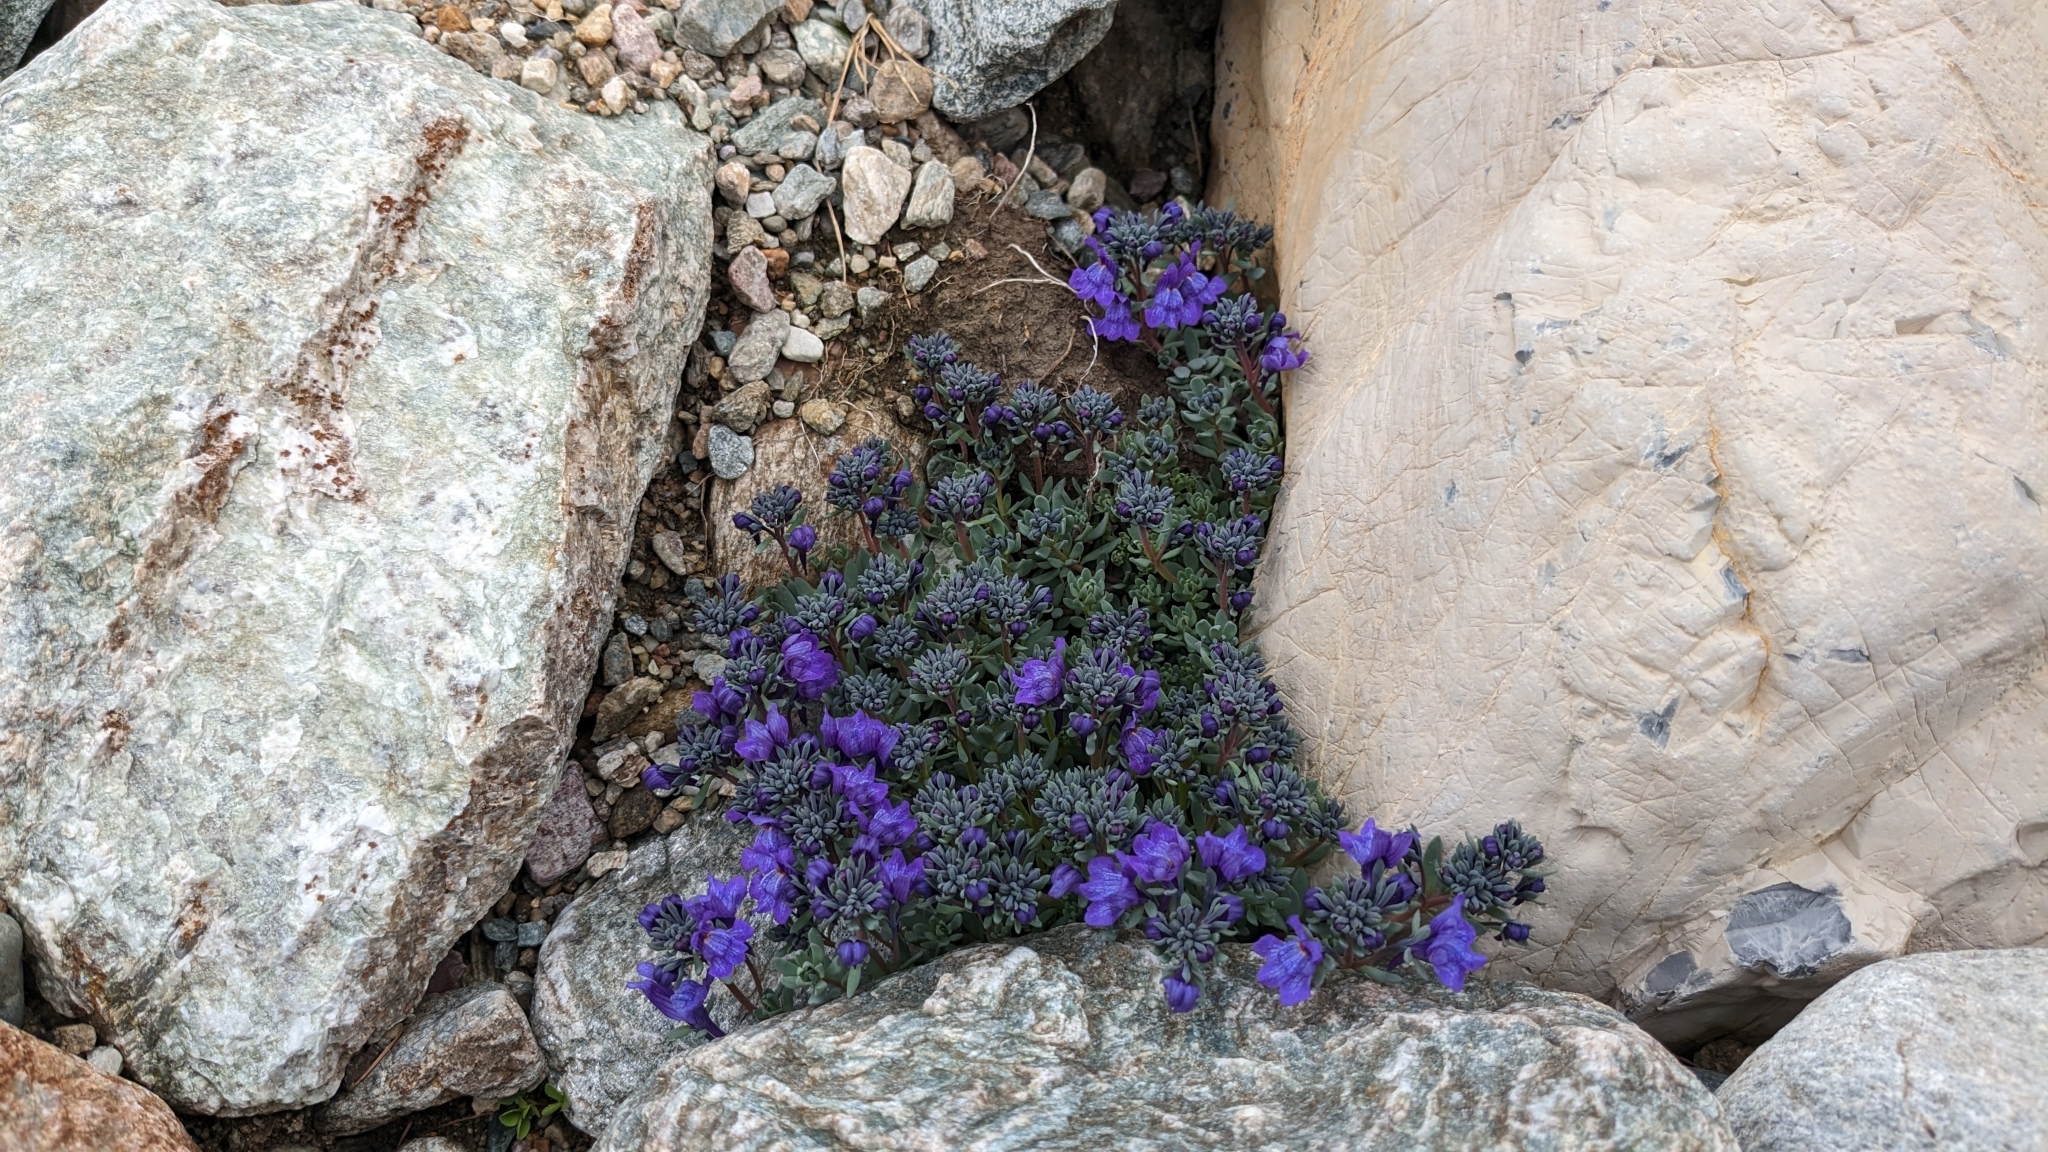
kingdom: Plantae
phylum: Tracheophyta
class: Magnoliopsida
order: Lamiales
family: Plantaginaceae
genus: Linaria
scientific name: Linaria alpina
